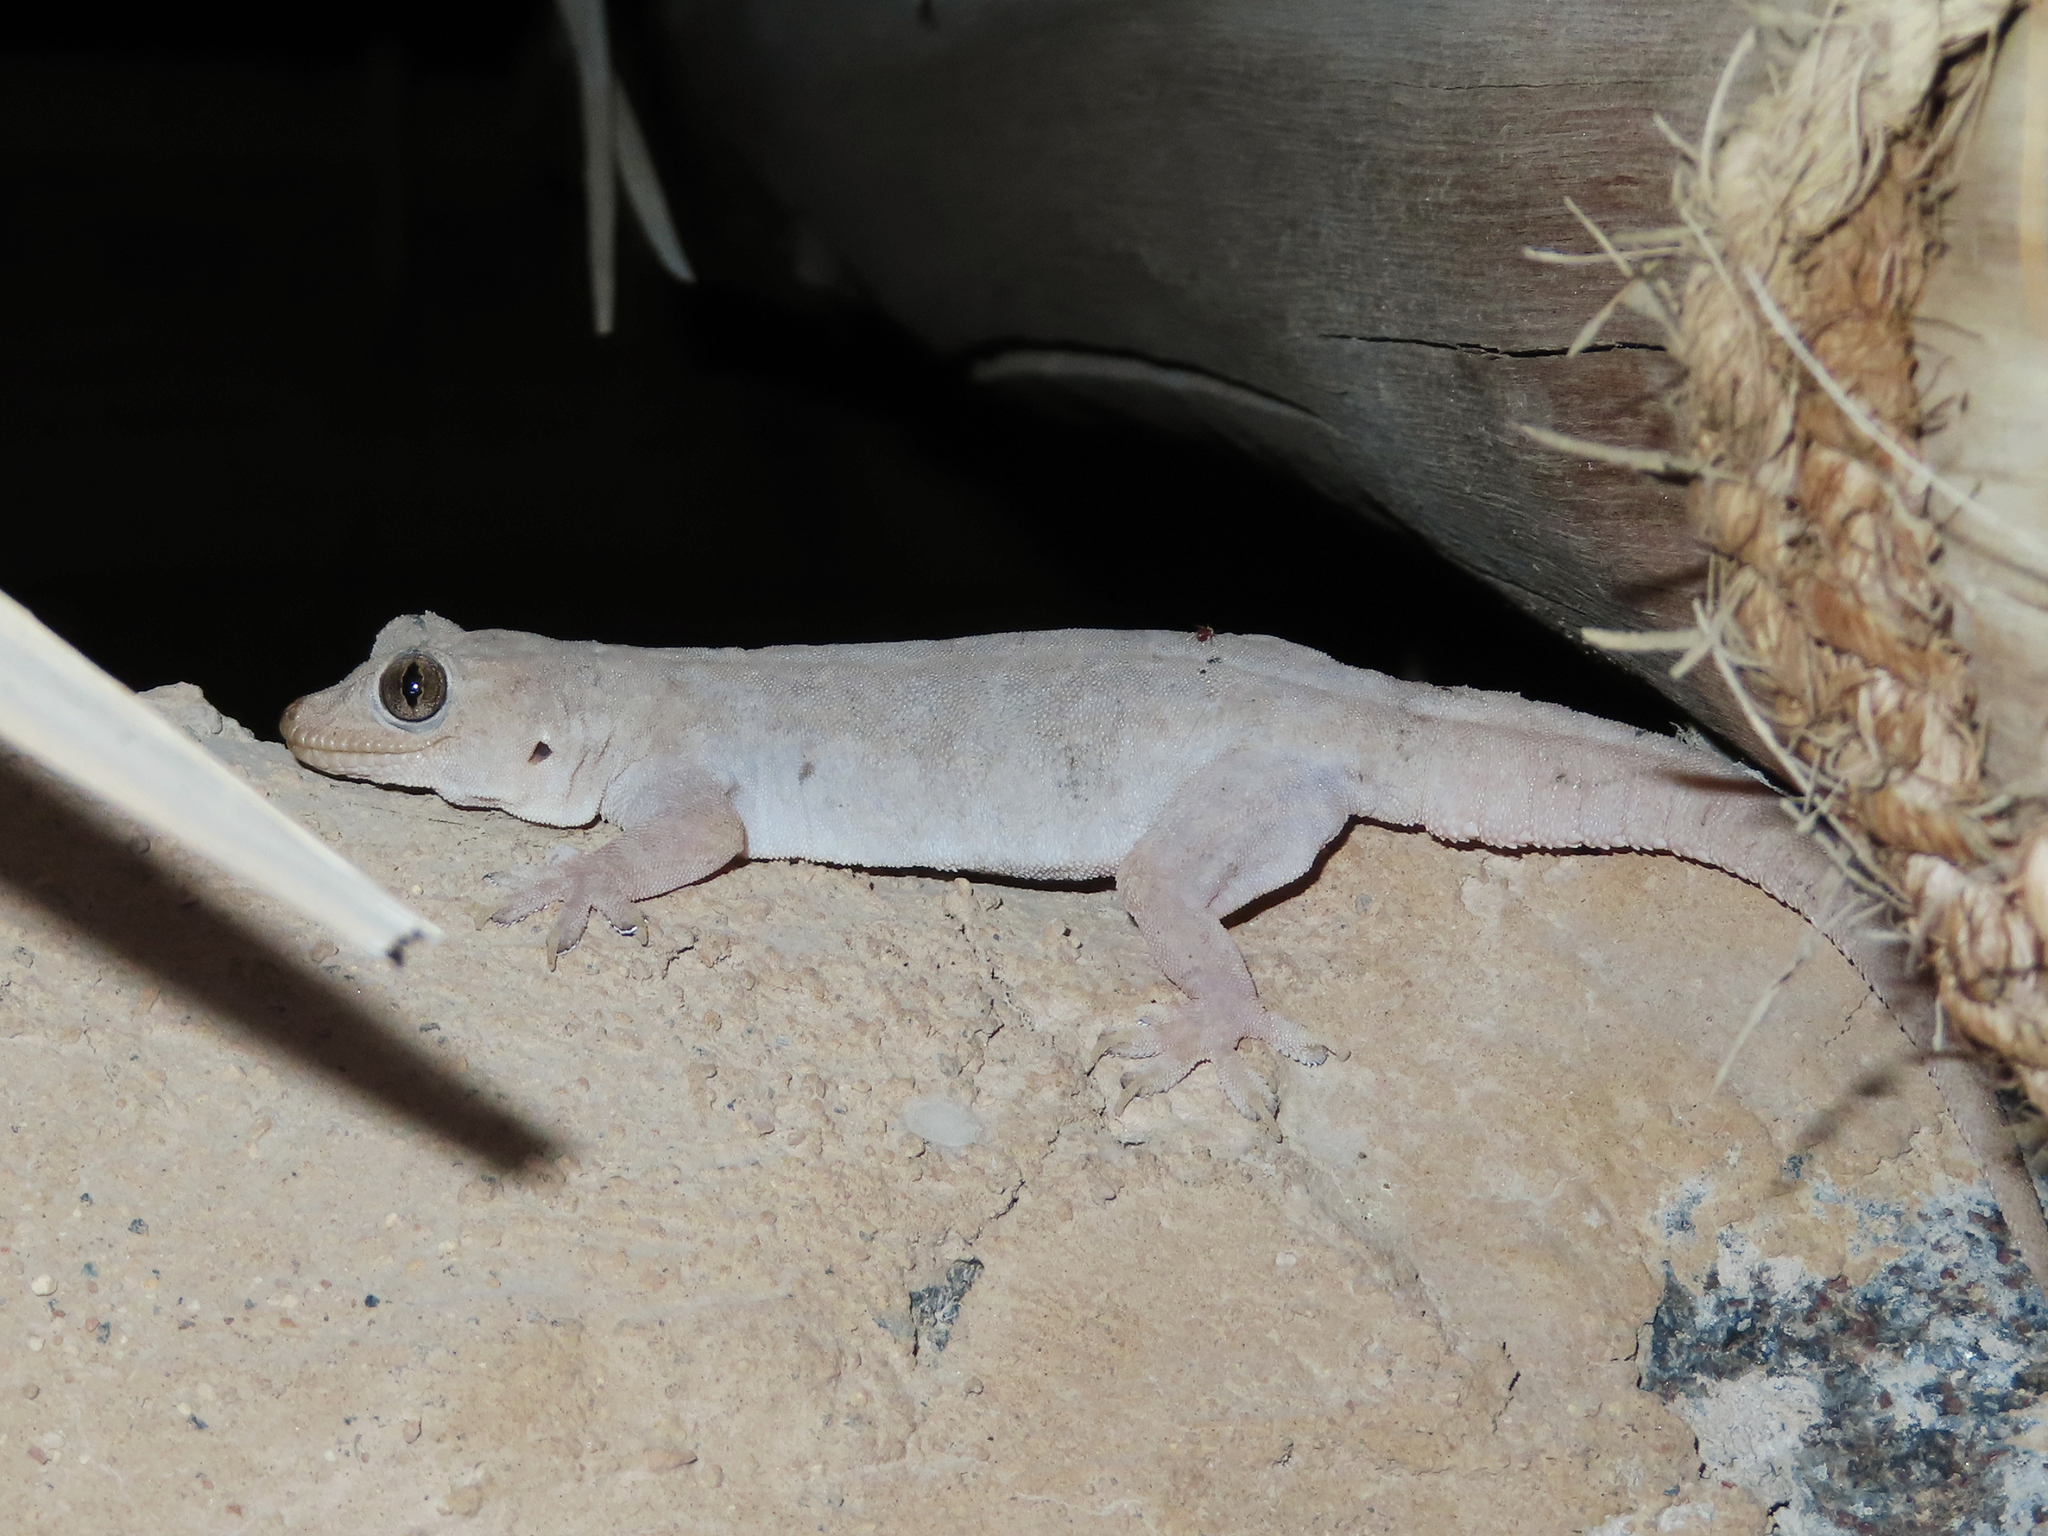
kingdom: Animalia
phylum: Chordata
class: Squamata
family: Gekkonidae
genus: Hemidactylus
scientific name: Hemidactylus flaviviridis
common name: Northern house gecko
